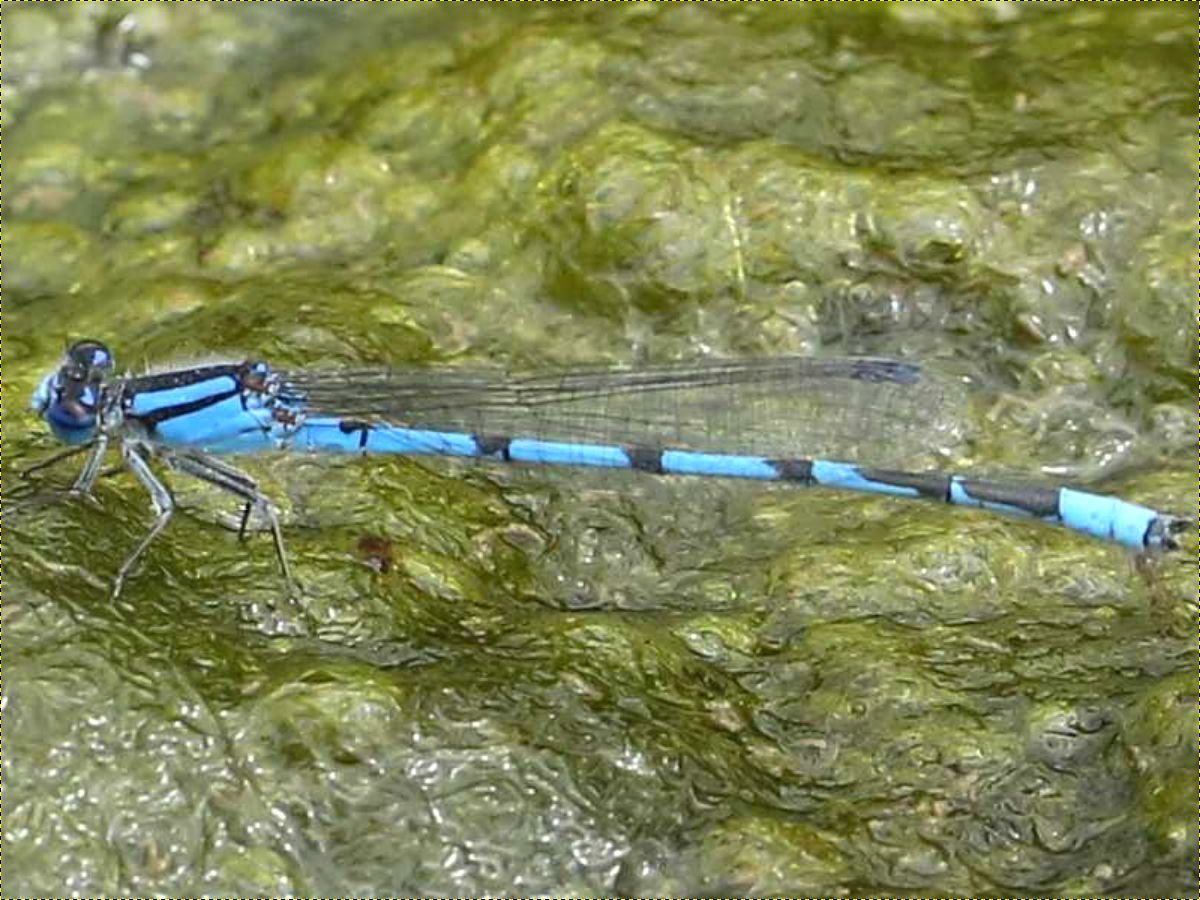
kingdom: Animalia
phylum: Arthropoda
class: Insecta
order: Odonata
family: Coenagrionidae
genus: Enallagma
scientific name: Enallagma civile
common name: Damselfly
